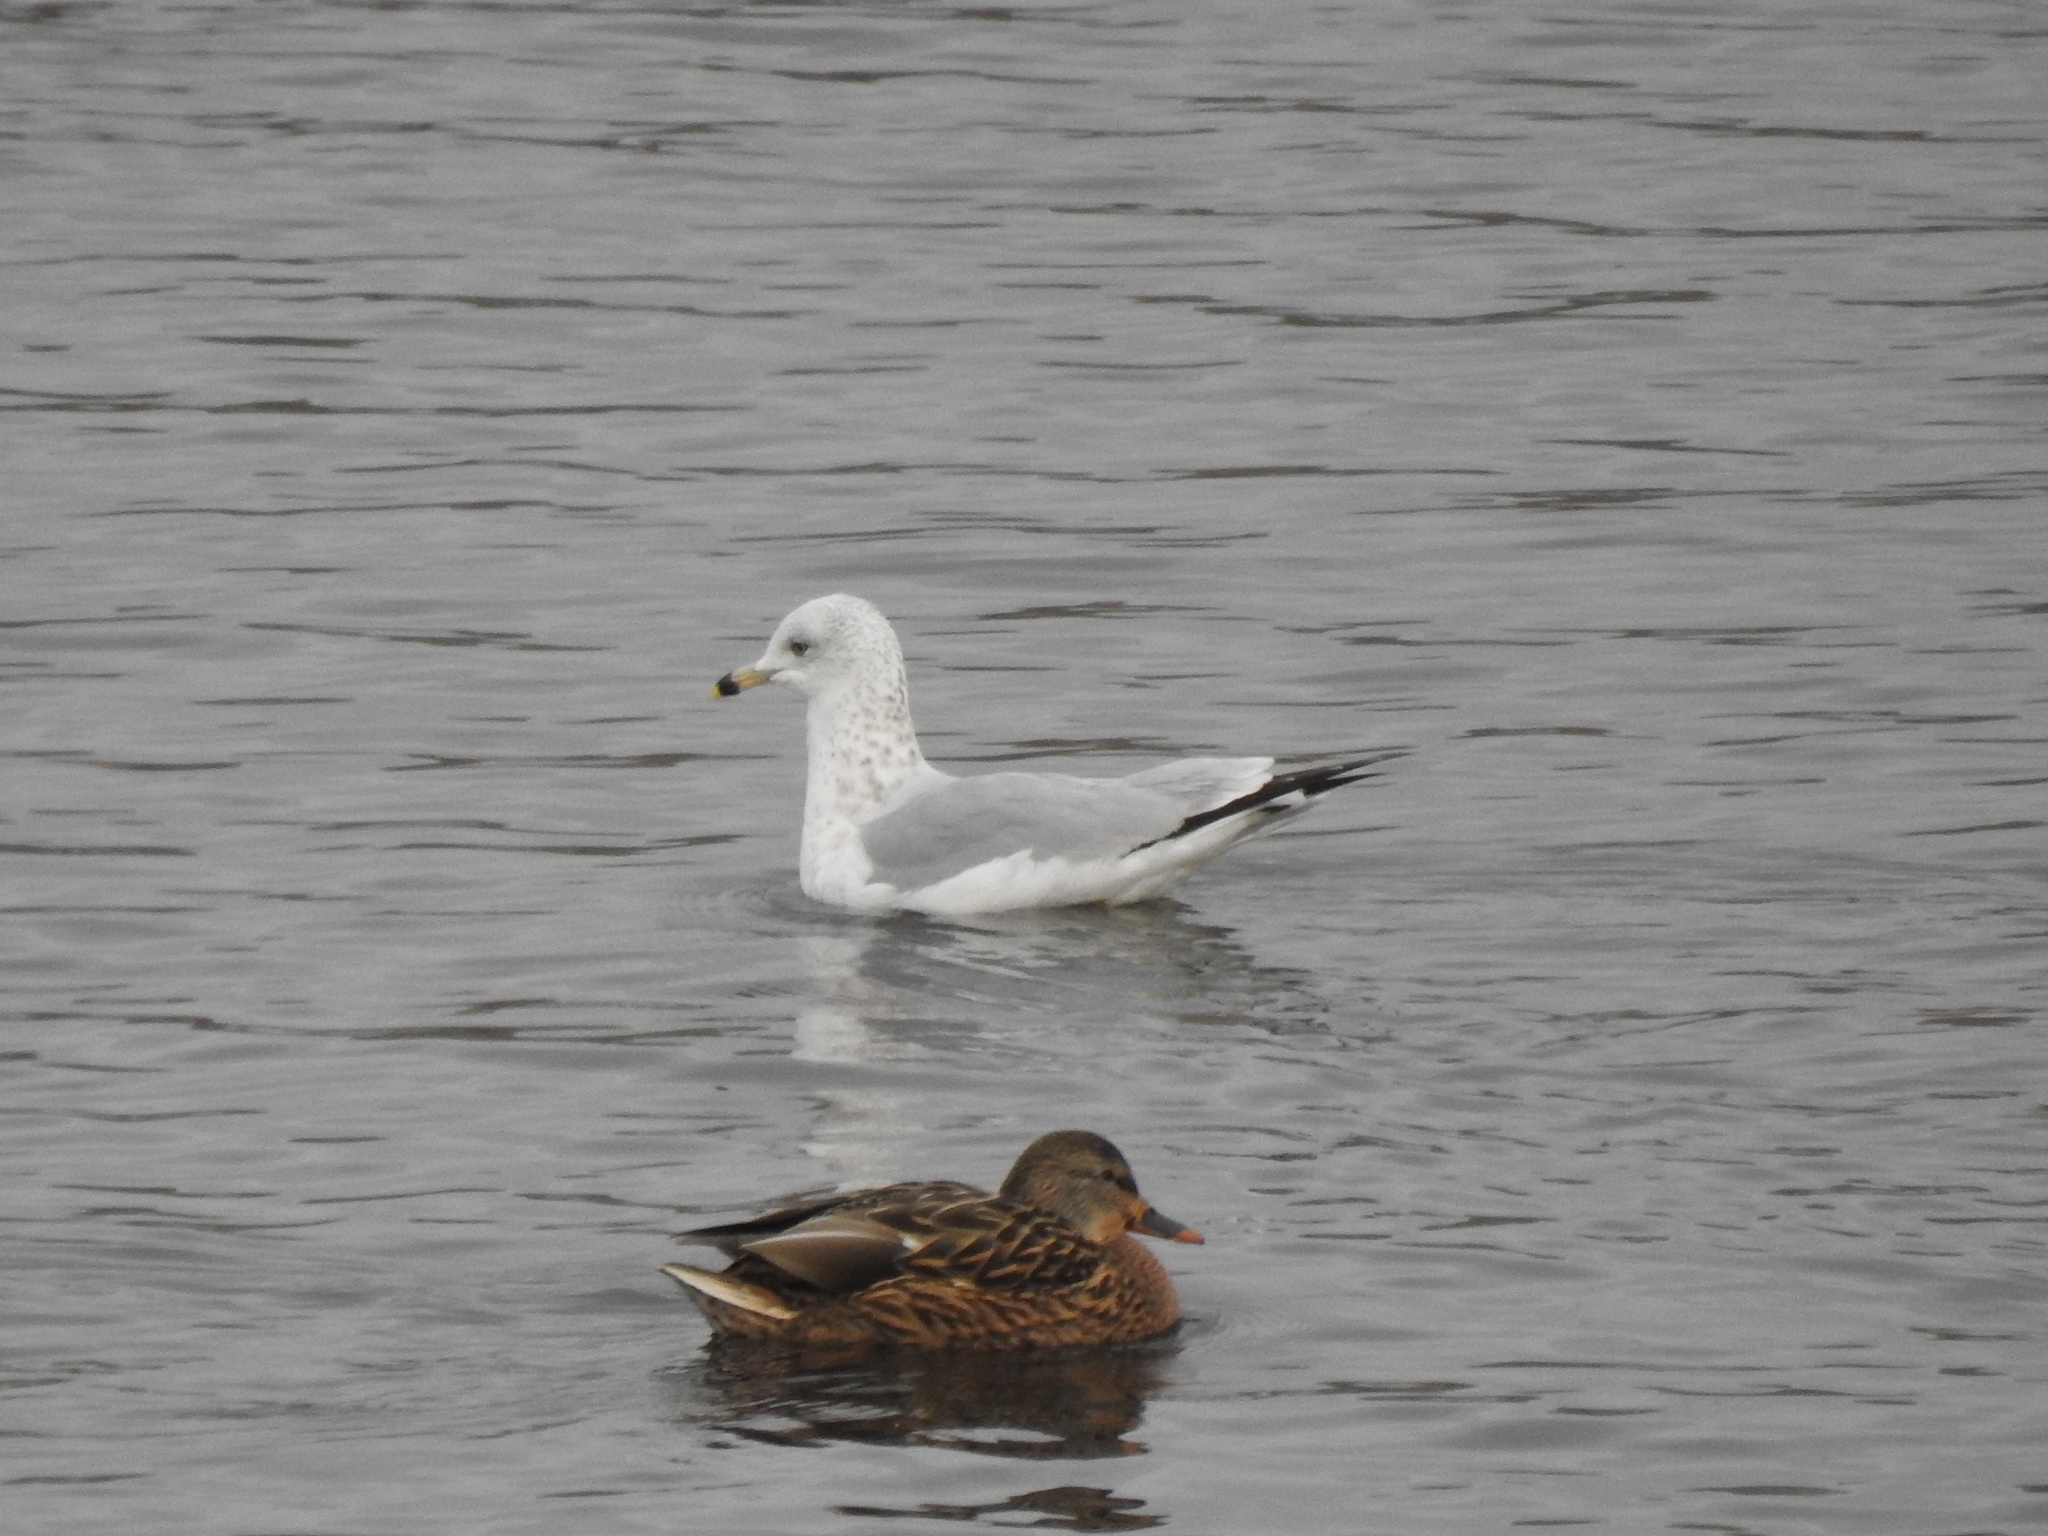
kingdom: Animalia
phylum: Chordata
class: Aves
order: Charadriiformes
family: Laridae
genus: Larus
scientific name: Larus delawarensis
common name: Ring-billed gull
